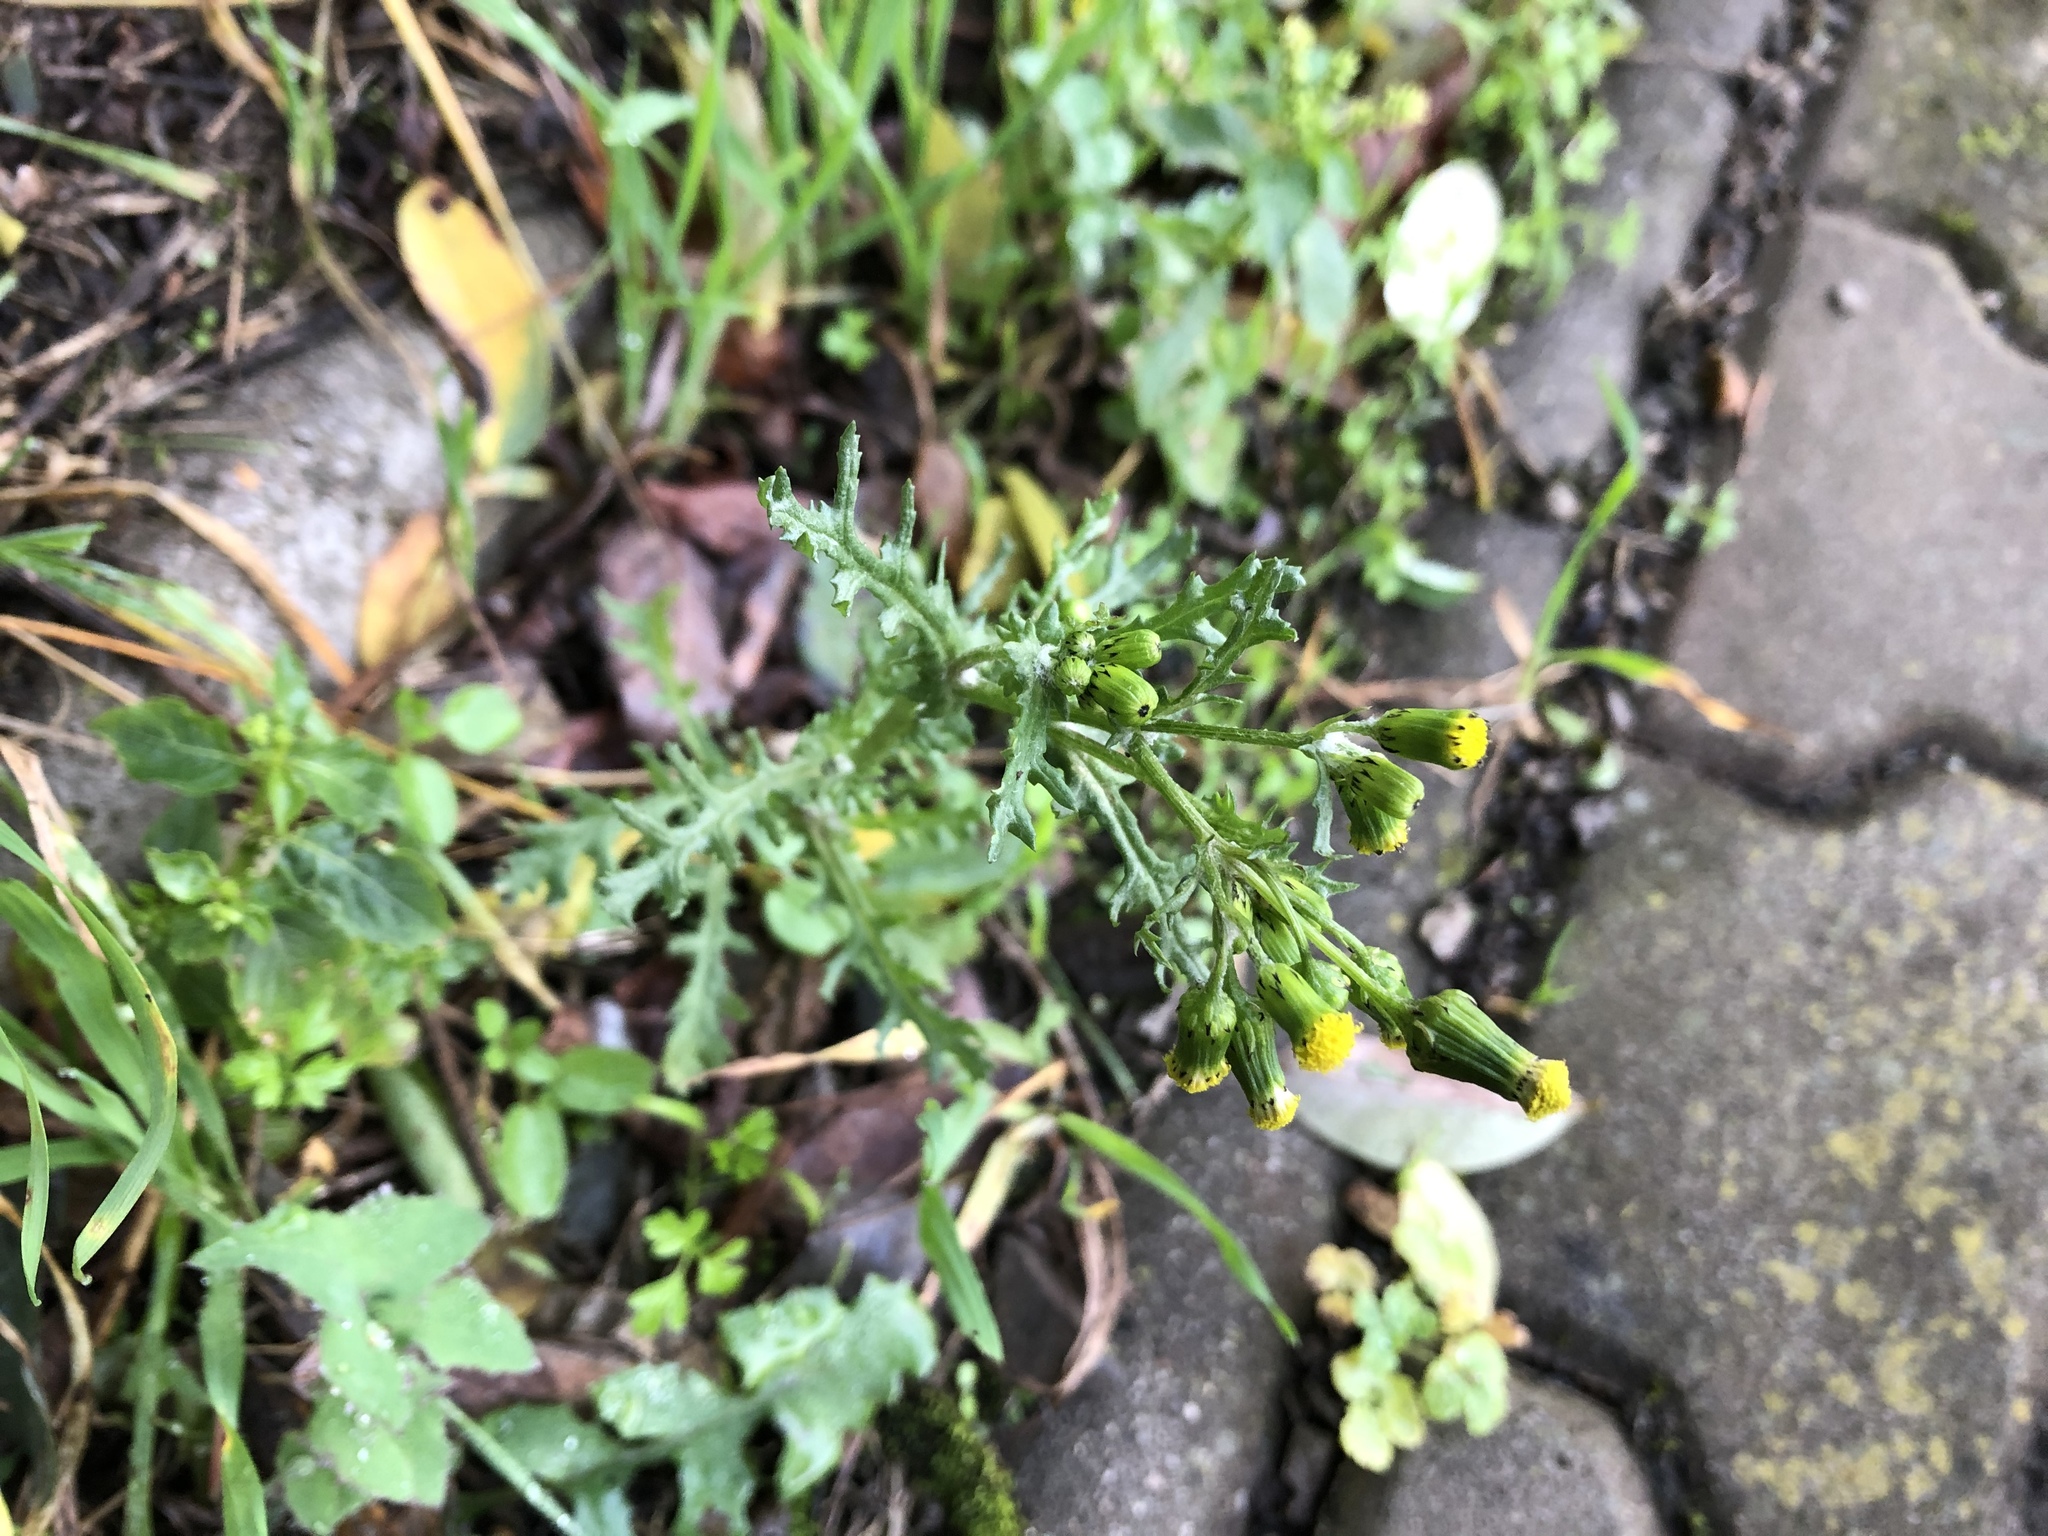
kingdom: Plantae
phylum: Tracheophyta
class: Magnoliopsida
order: Asterales
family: Asteraceae
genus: Senecio
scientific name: Senecio vulgaris
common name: Old-man-in-the-spring
